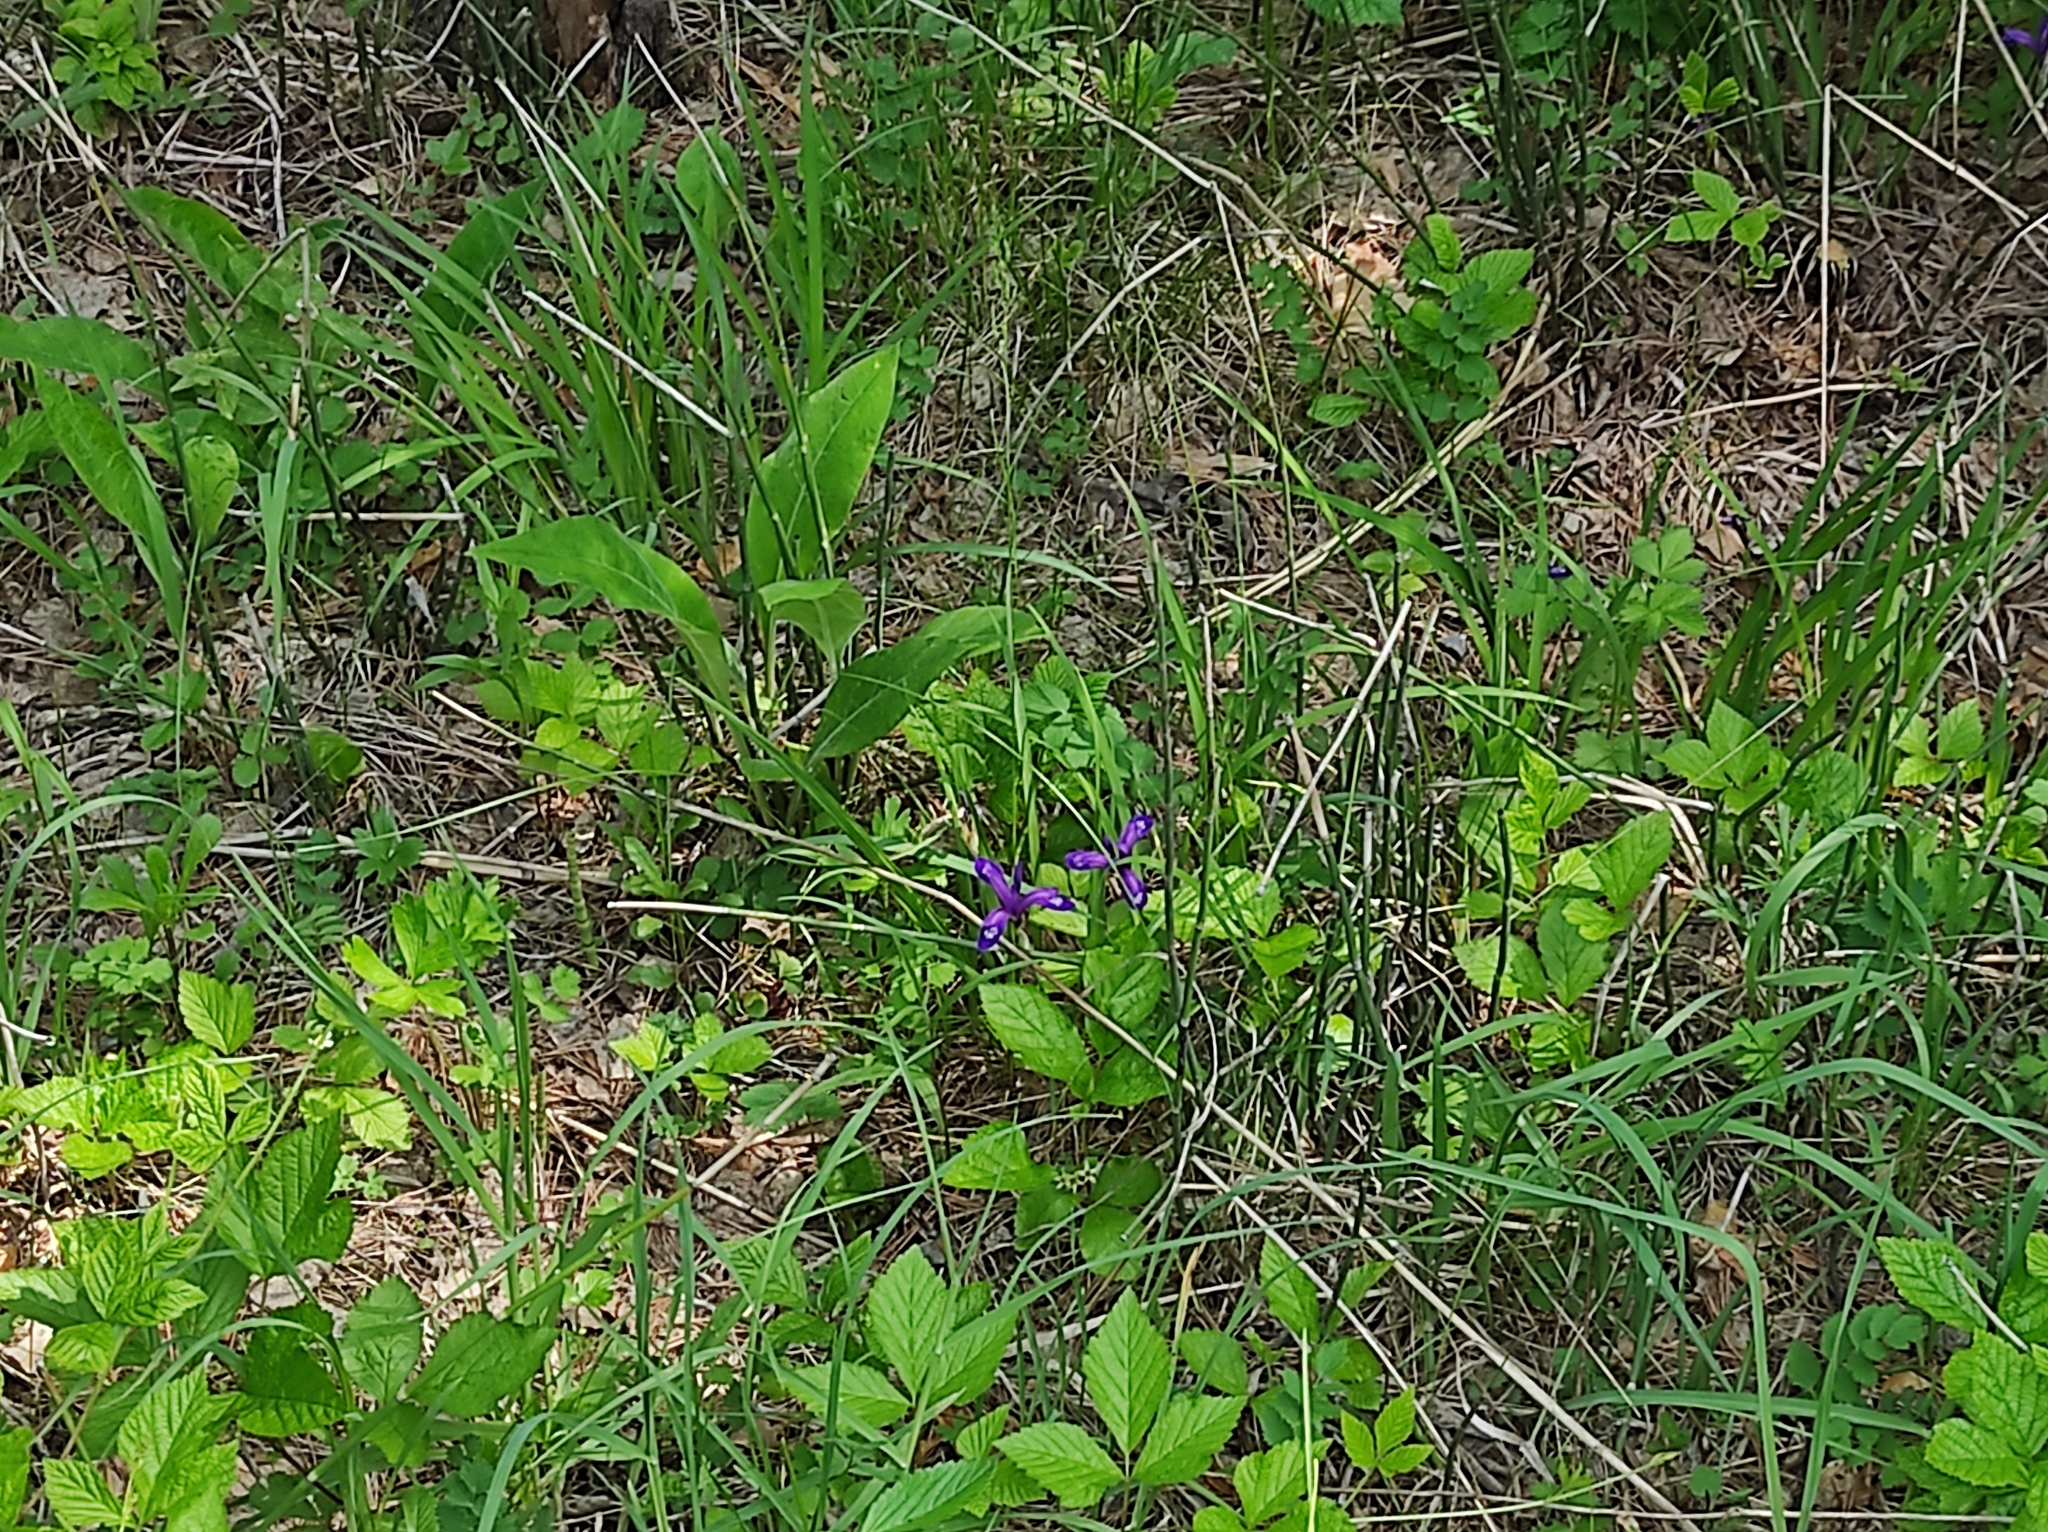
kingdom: Plantae
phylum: Tracheophyta
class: Liliopsida
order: Asparagales
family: Iridaceae
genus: Iris
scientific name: Iris ruthenica
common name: Purple-bract iris
